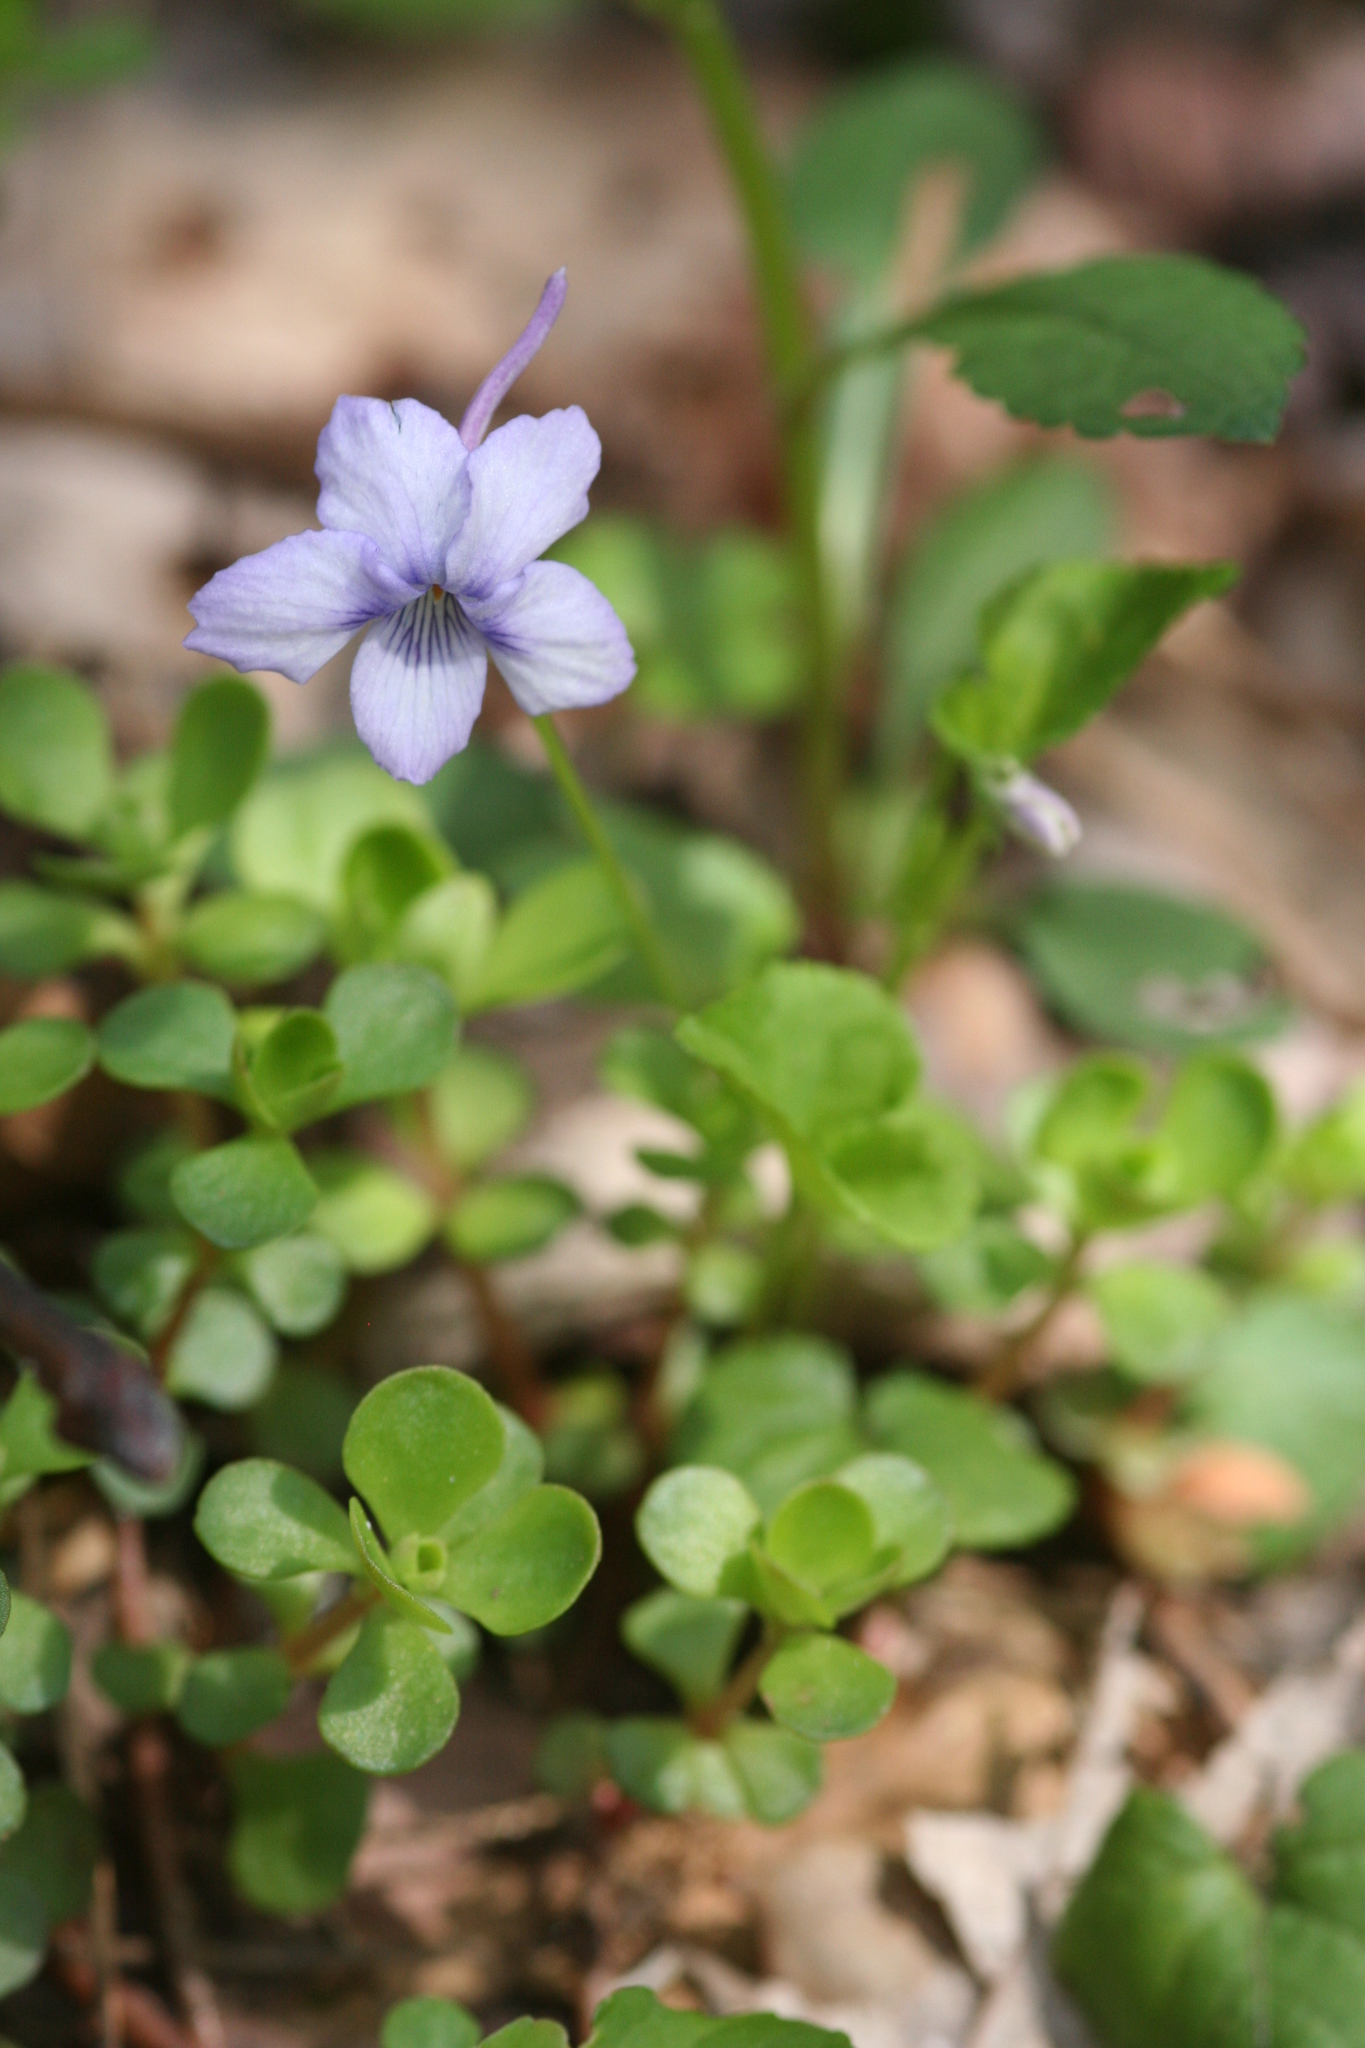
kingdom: Plantae
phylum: Tracheophyta
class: Magnoliopsida
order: Malpighiales
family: Violaceae
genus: Viola
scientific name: Viola rostrata
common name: Long-spur violet
